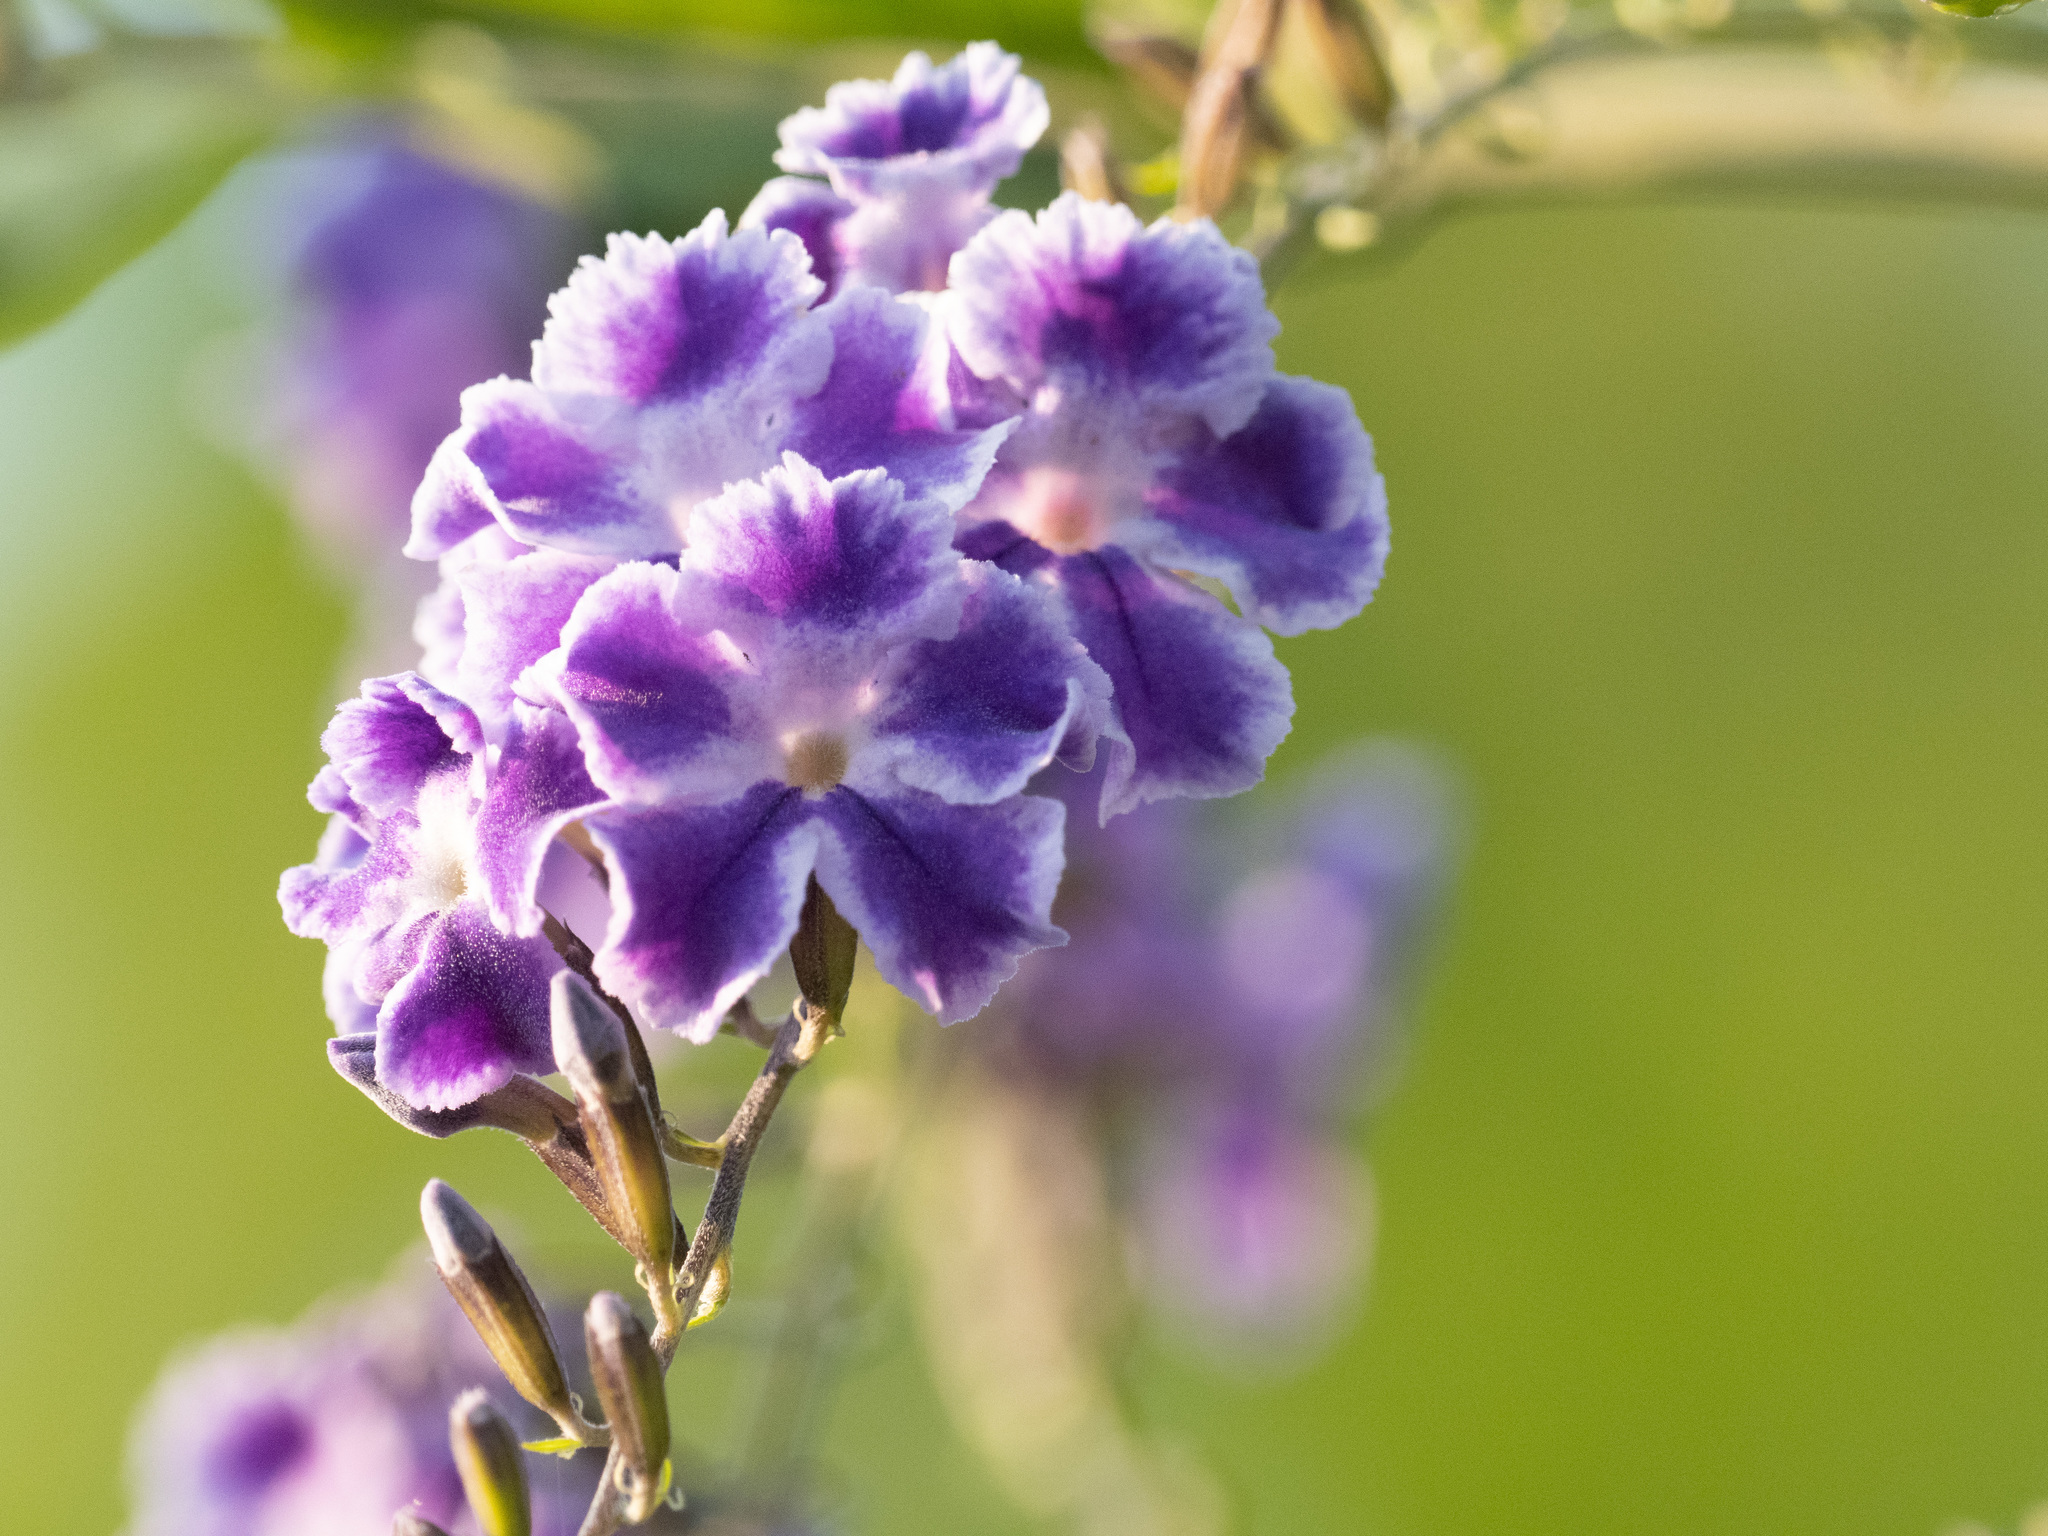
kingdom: Plantae
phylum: Tracheophyta
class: Magnoliopsida
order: Lamiales
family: Verbenaceae
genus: Duranta
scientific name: Duranta erecta
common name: Golden dewdrops
